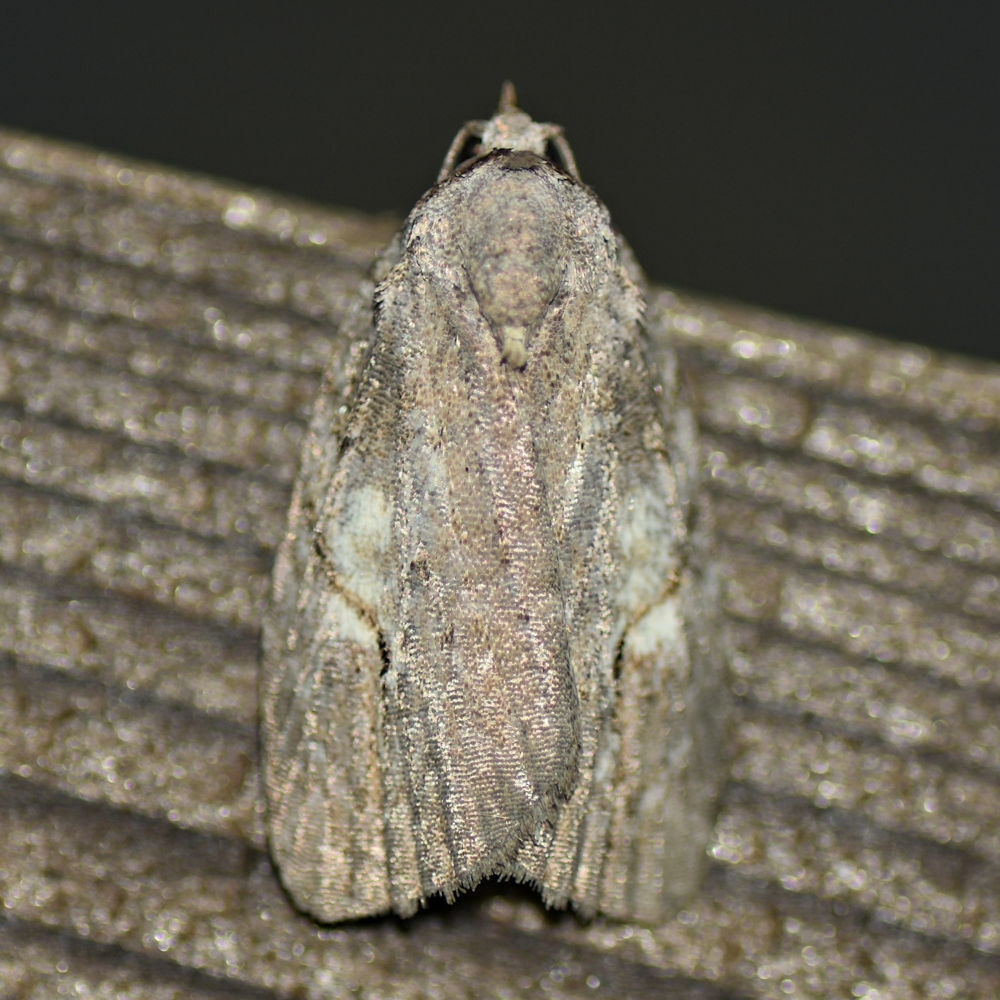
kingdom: Animalia
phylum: Arthropoda
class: Insecta
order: Lepidoptera
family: Noctuidae
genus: Balsa
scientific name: Balsa labecula
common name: White-blotched balsa moth
